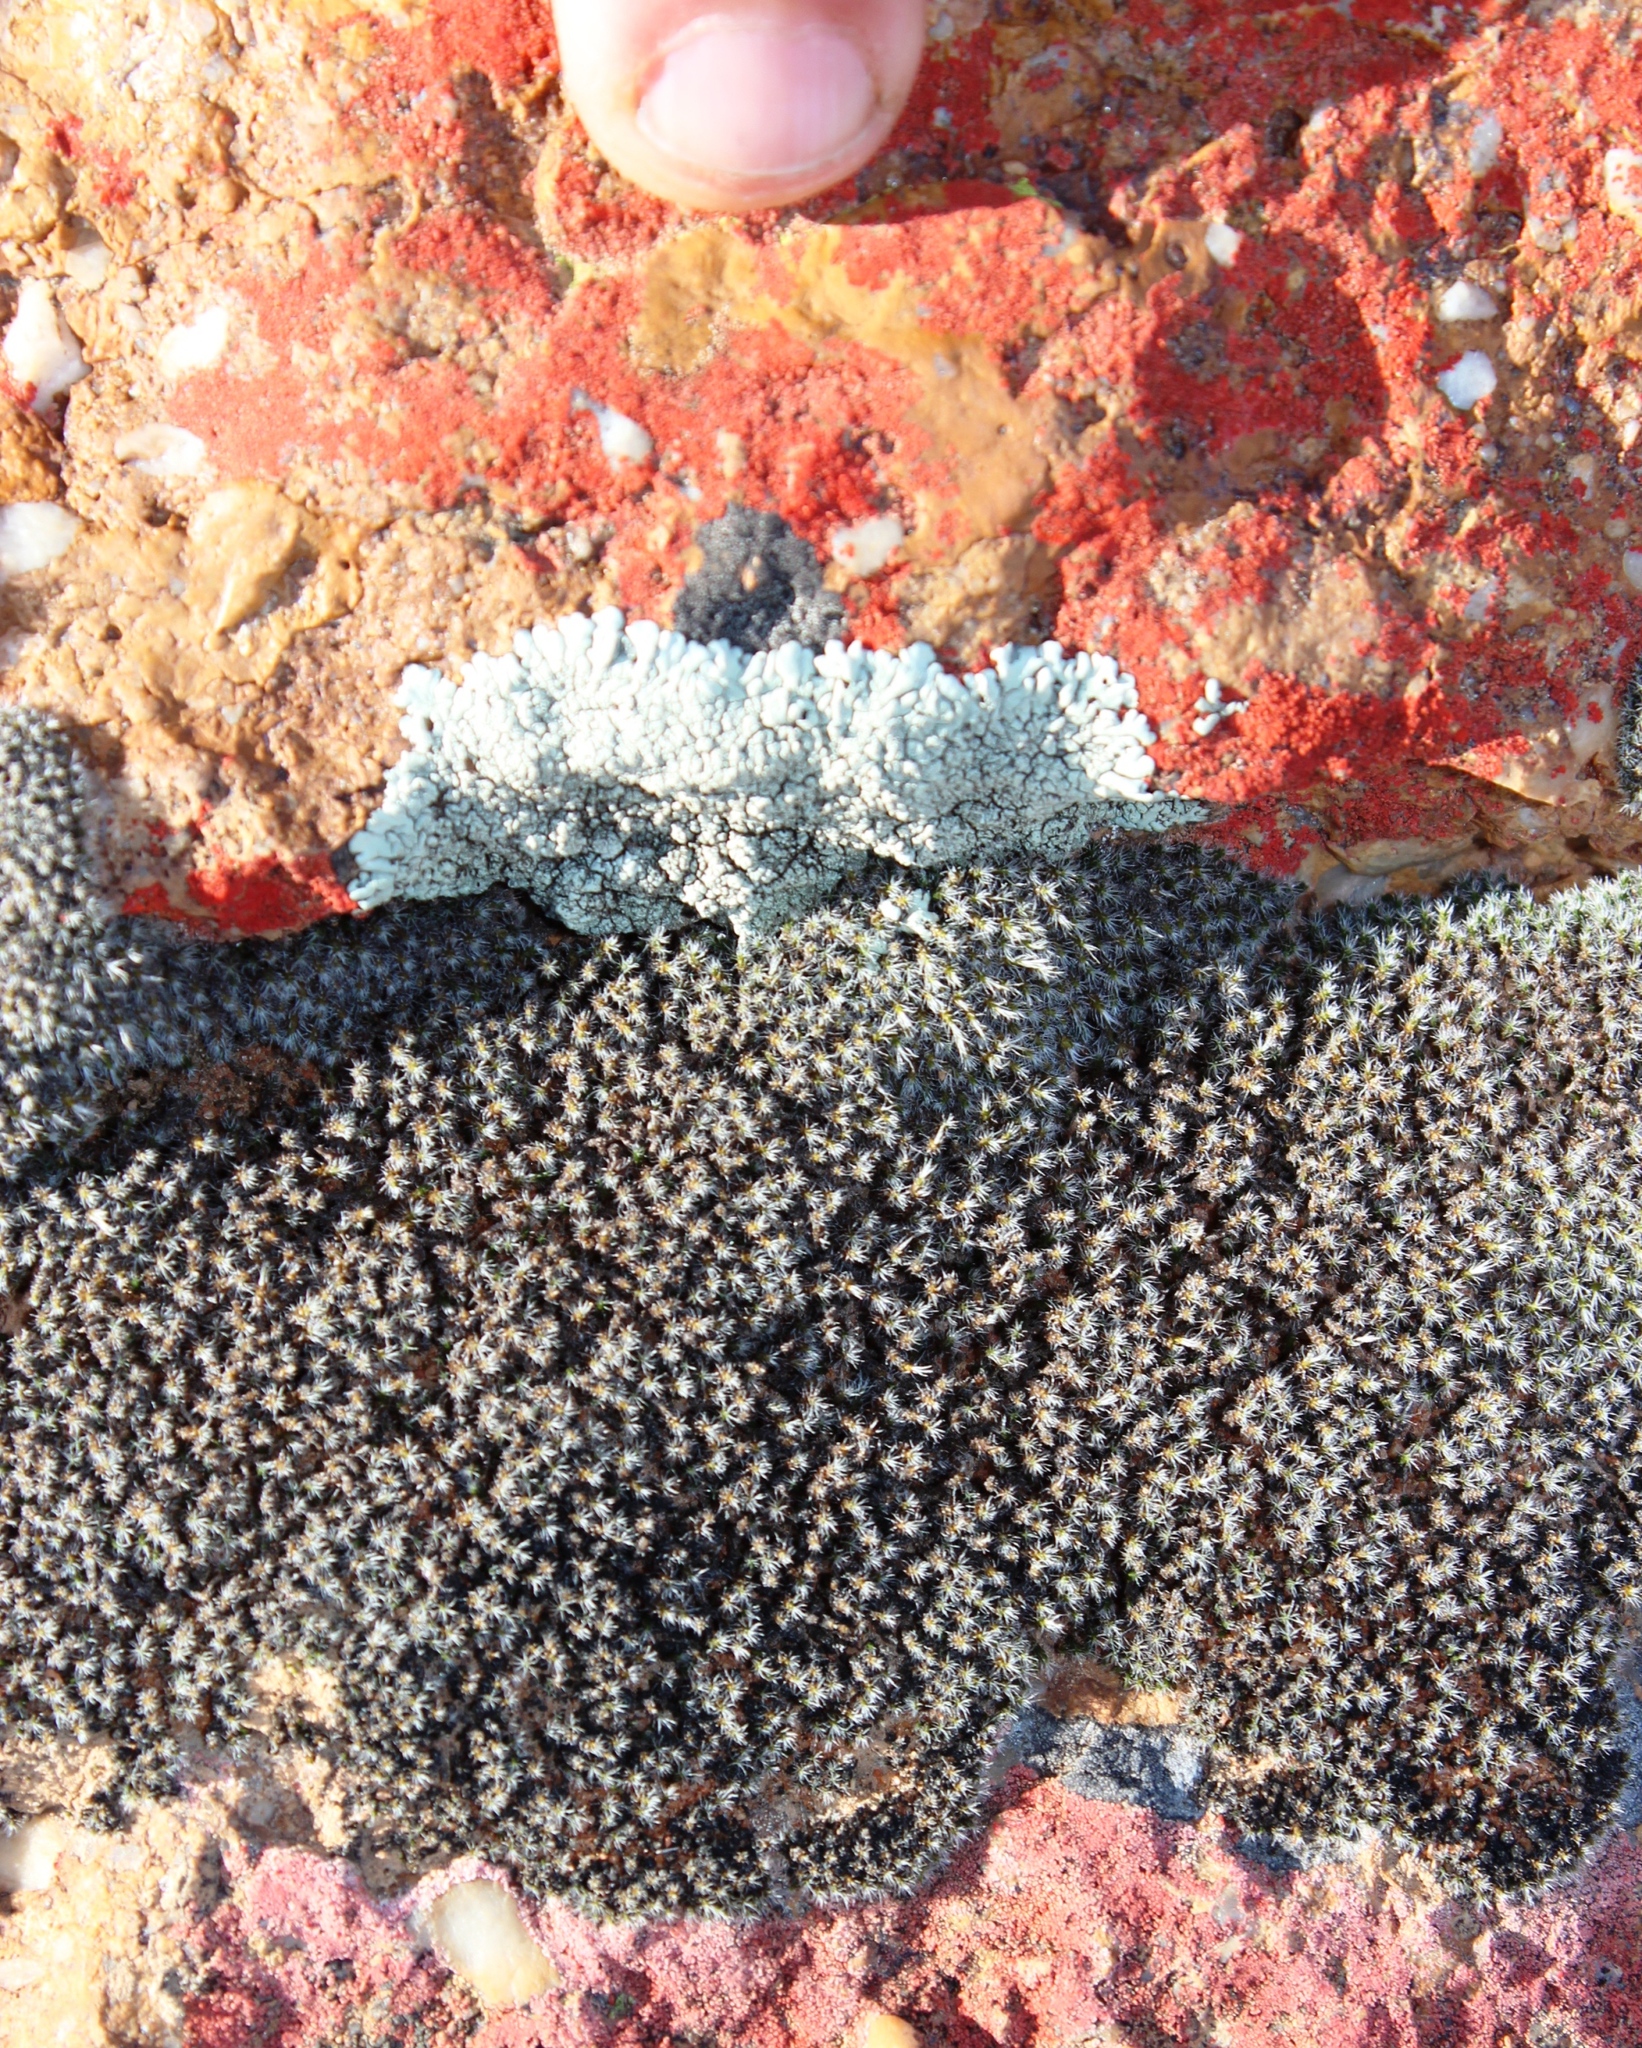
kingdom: Plantae
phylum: Bryophyta
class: Bryopsida
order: Grimmiales
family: Grimmiaceae
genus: Grimmia
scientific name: Grimmia laevigata
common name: Hoary grimmia
